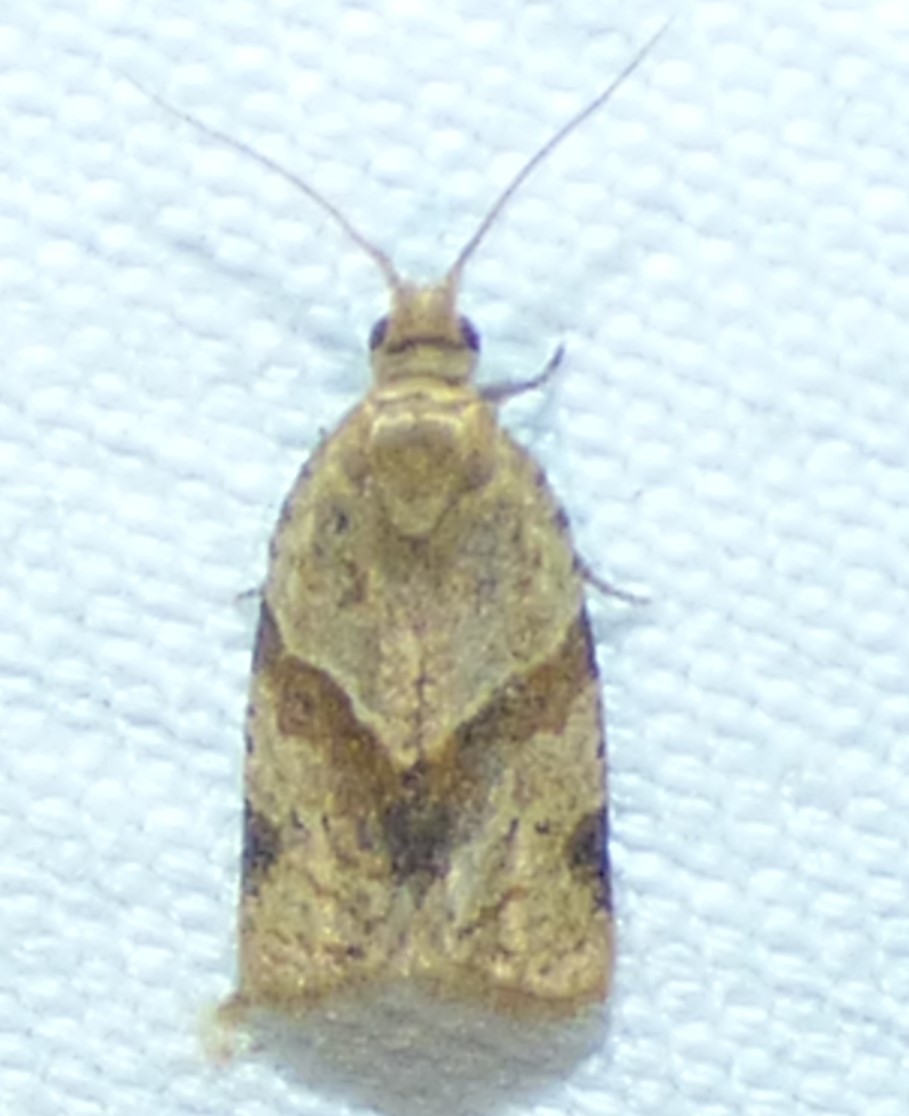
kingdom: Animalia
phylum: Arthropoda
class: Insecta
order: Lepidoptera
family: Tortricidae
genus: Clepsis
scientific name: Clepsis peritana
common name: Garden tortrix
